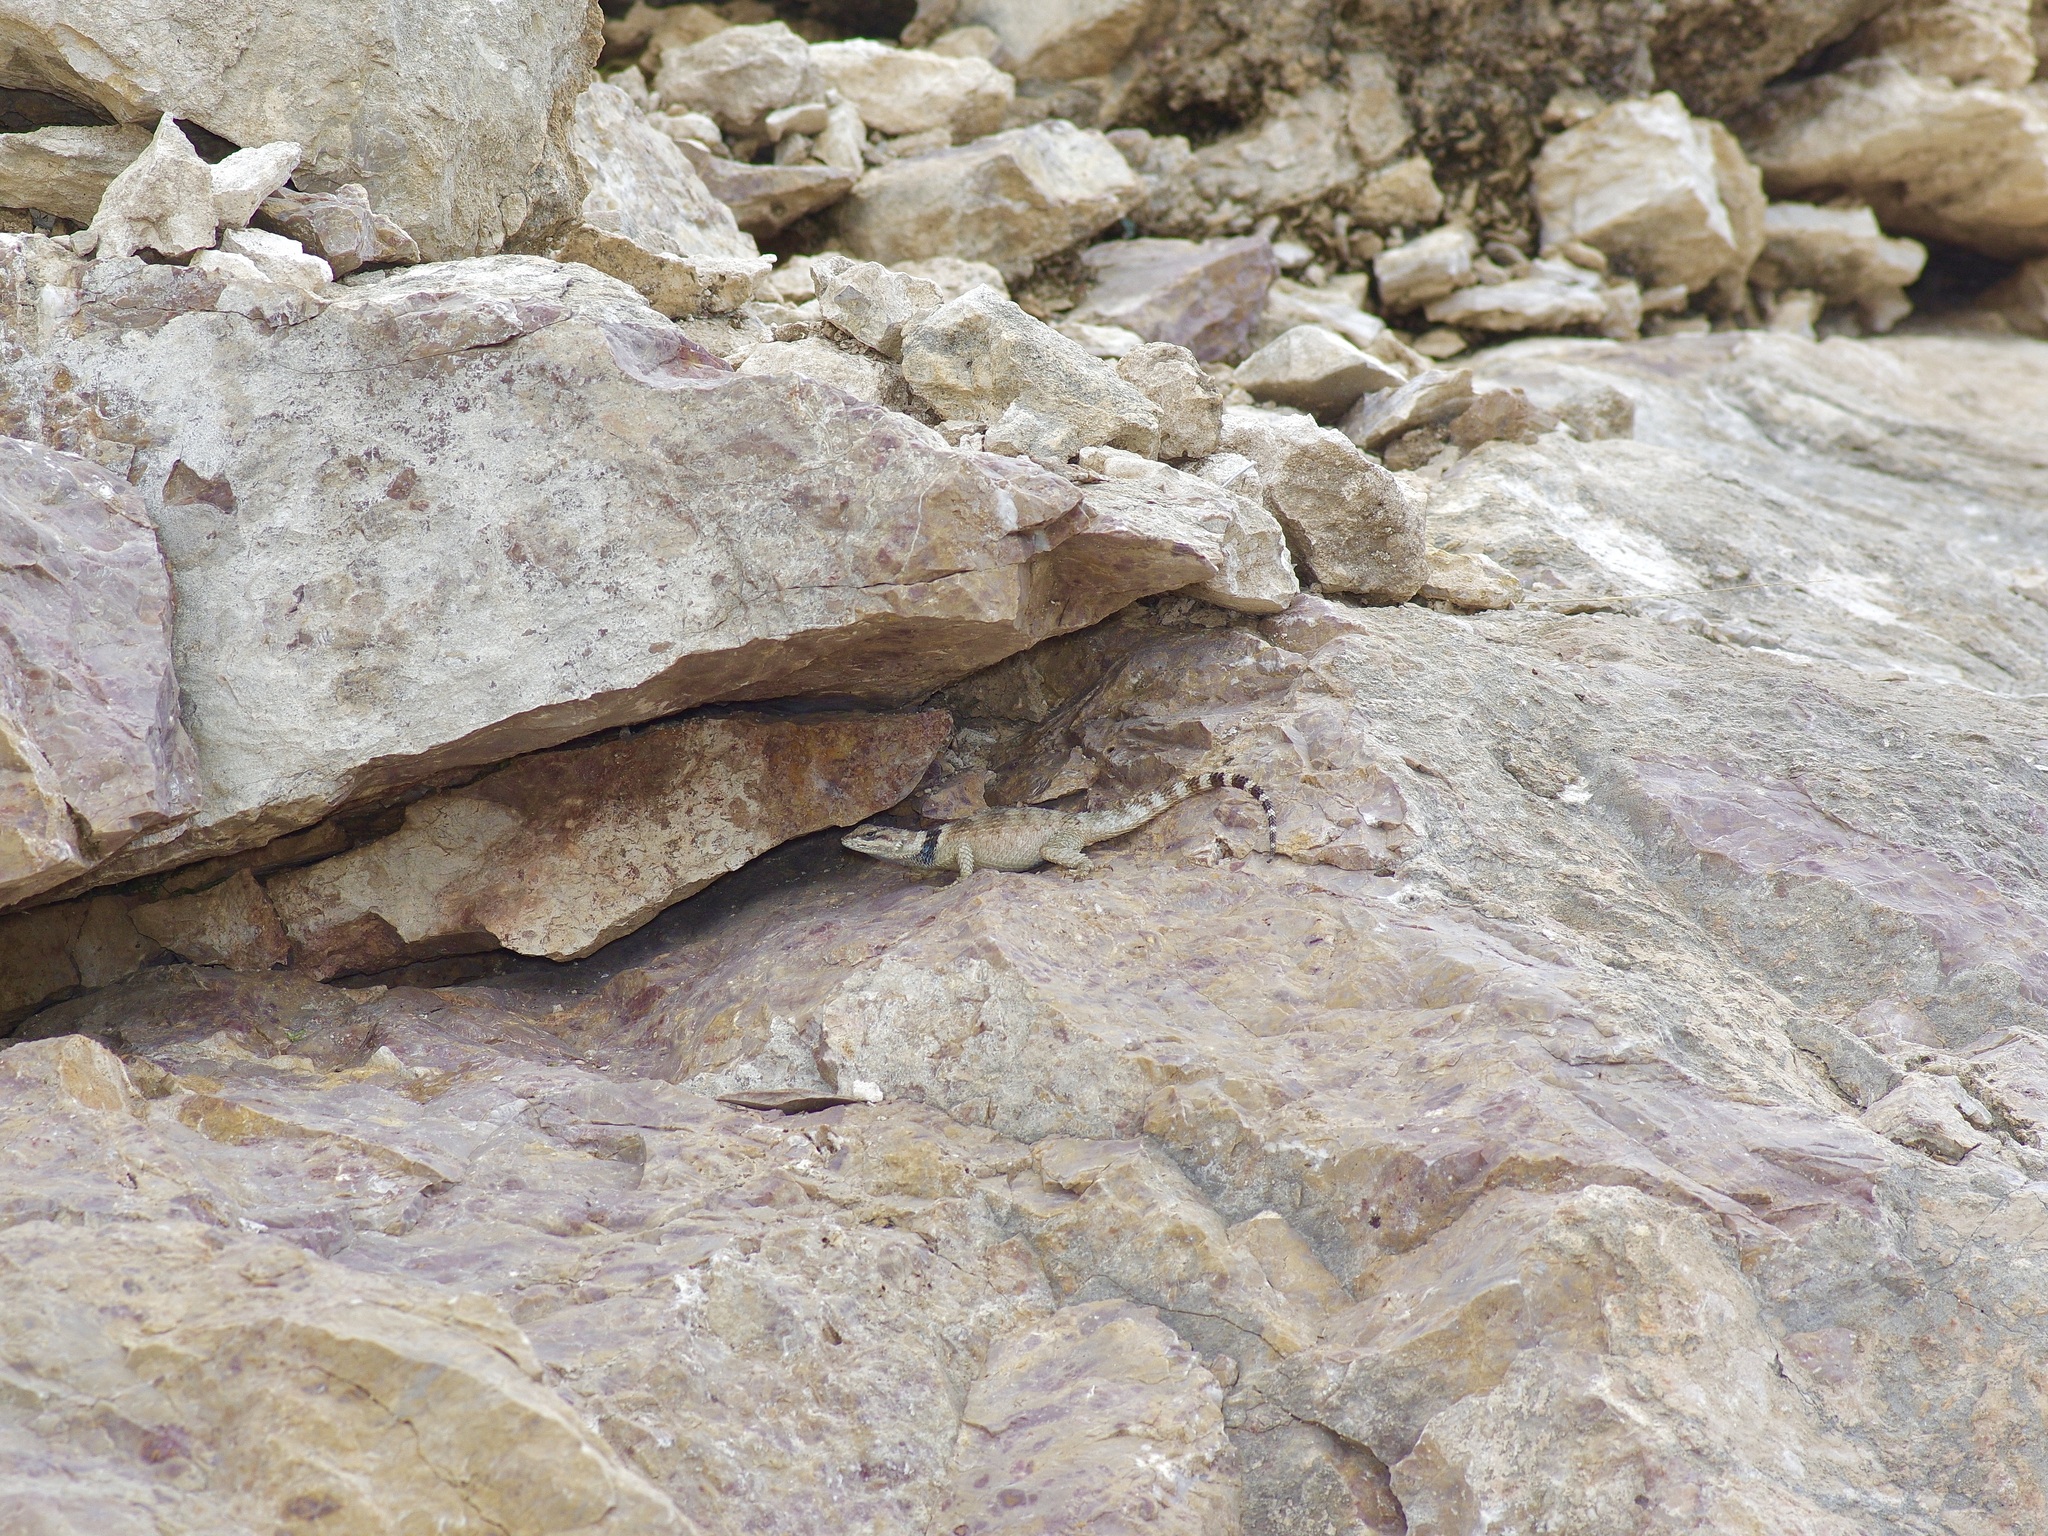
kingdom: Animalia
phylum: Chordata
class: Squamata
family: Phrynosomatidae
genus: Sceloporus
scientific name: Sceloporus poinsettii
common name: Crevice spiny lizard
